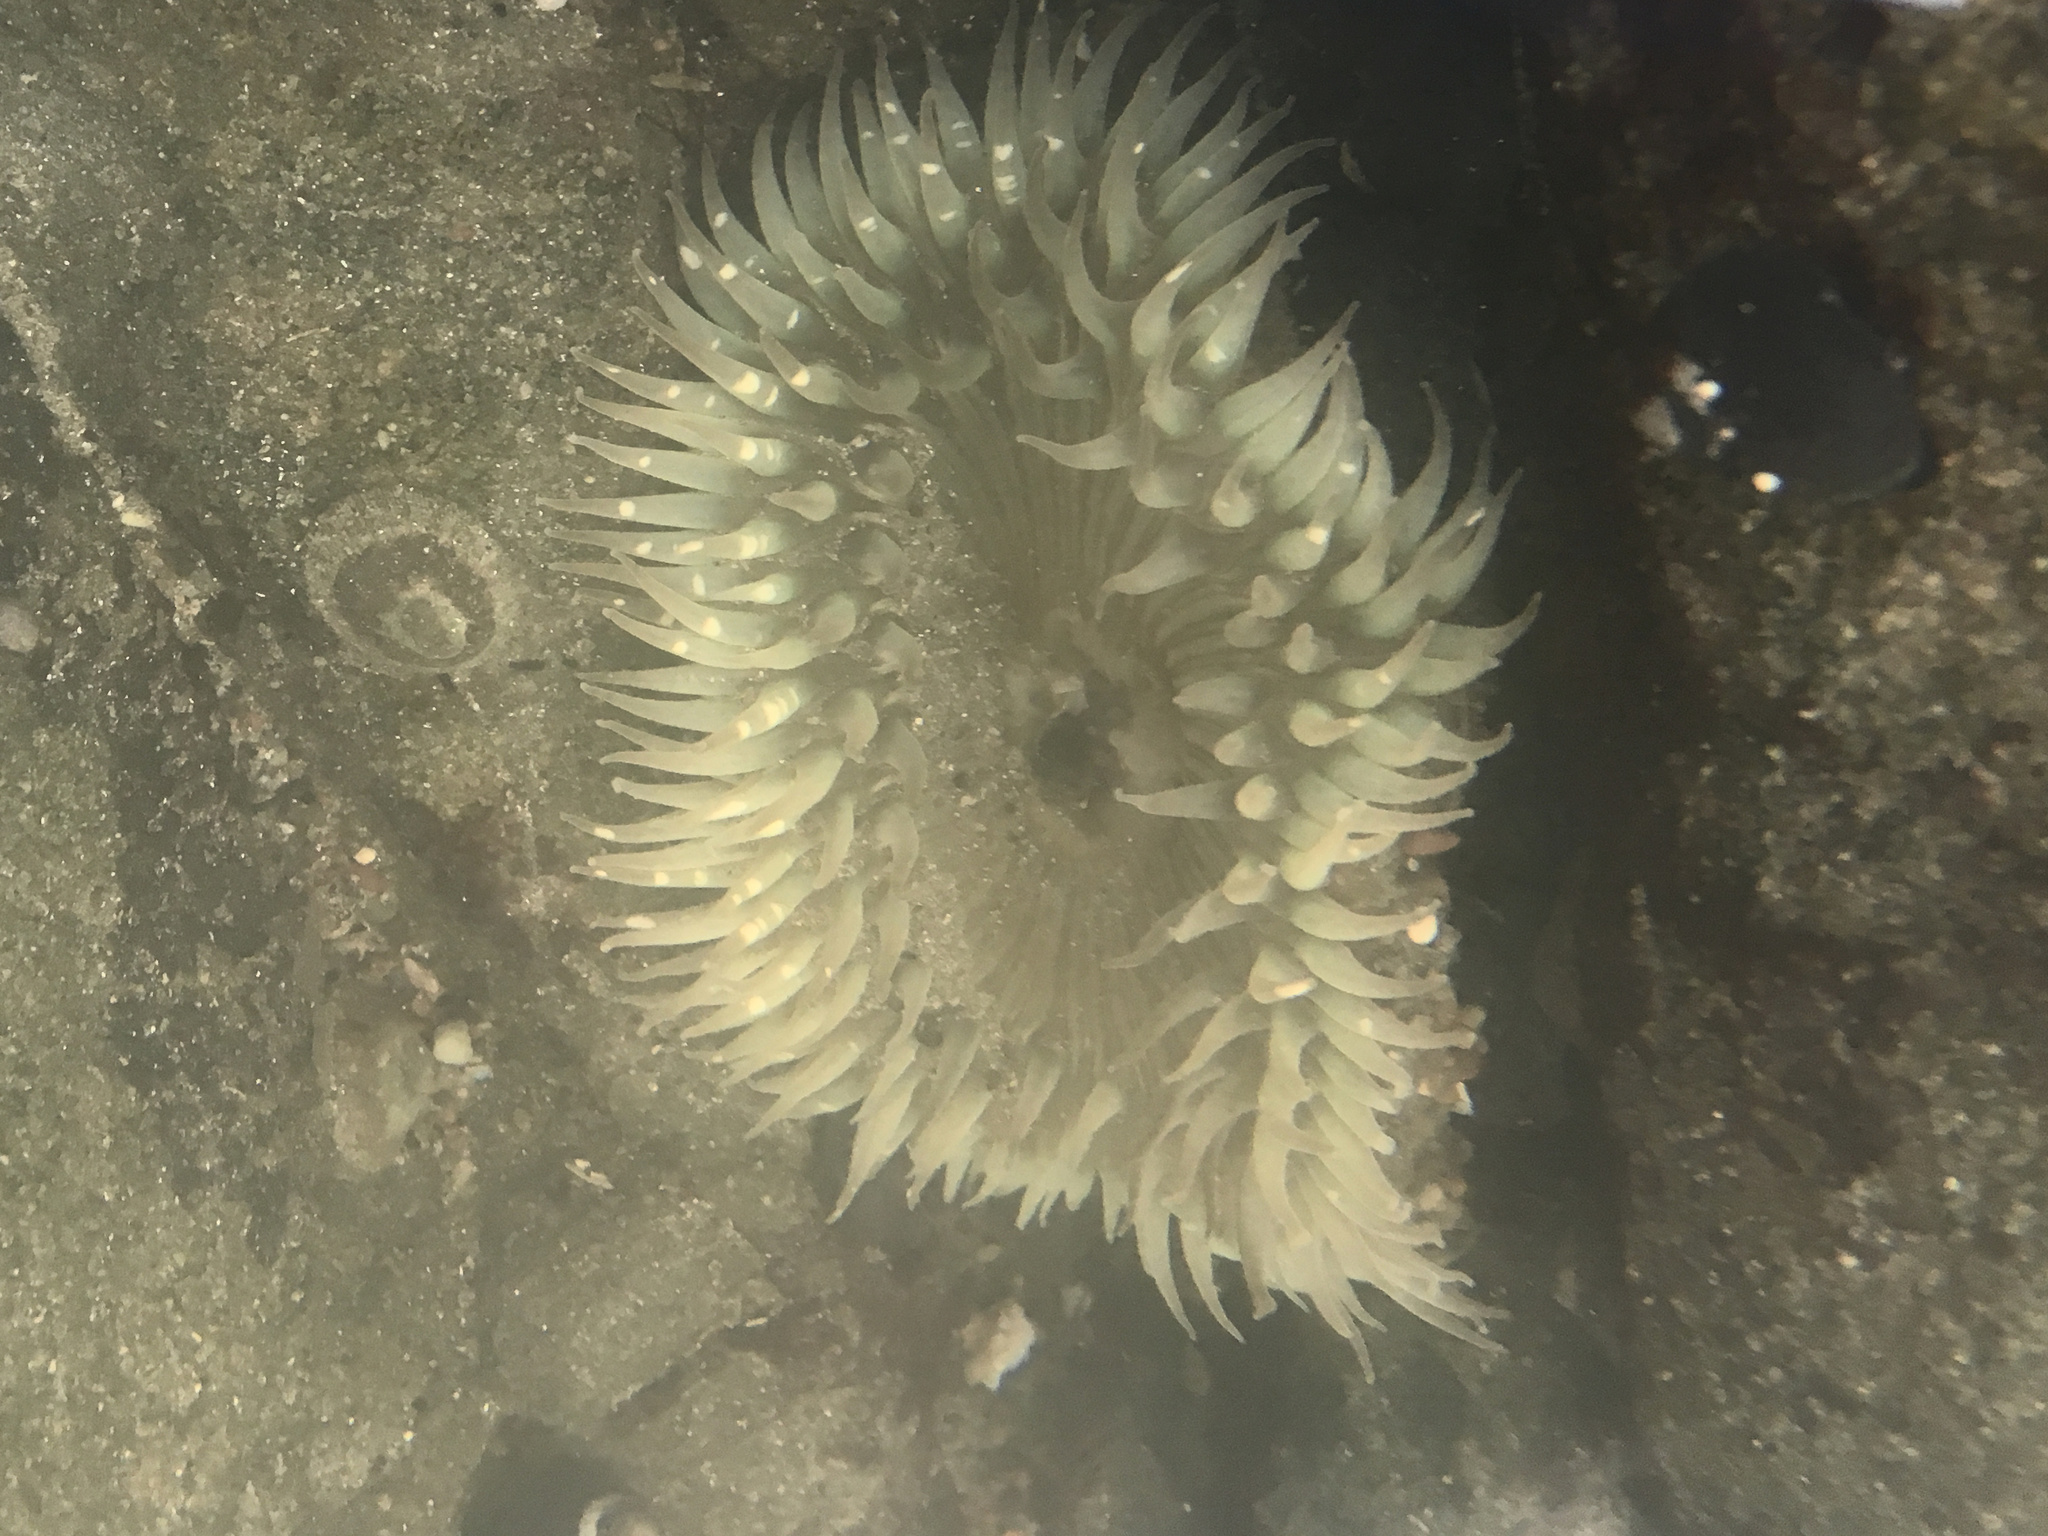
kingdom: Animalia
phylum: Cnidaria
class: Anthozoa
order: Actiniaria
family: Actiniidae
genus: Anthopleura
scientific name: Anthopleura sola
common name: Sun anemone
